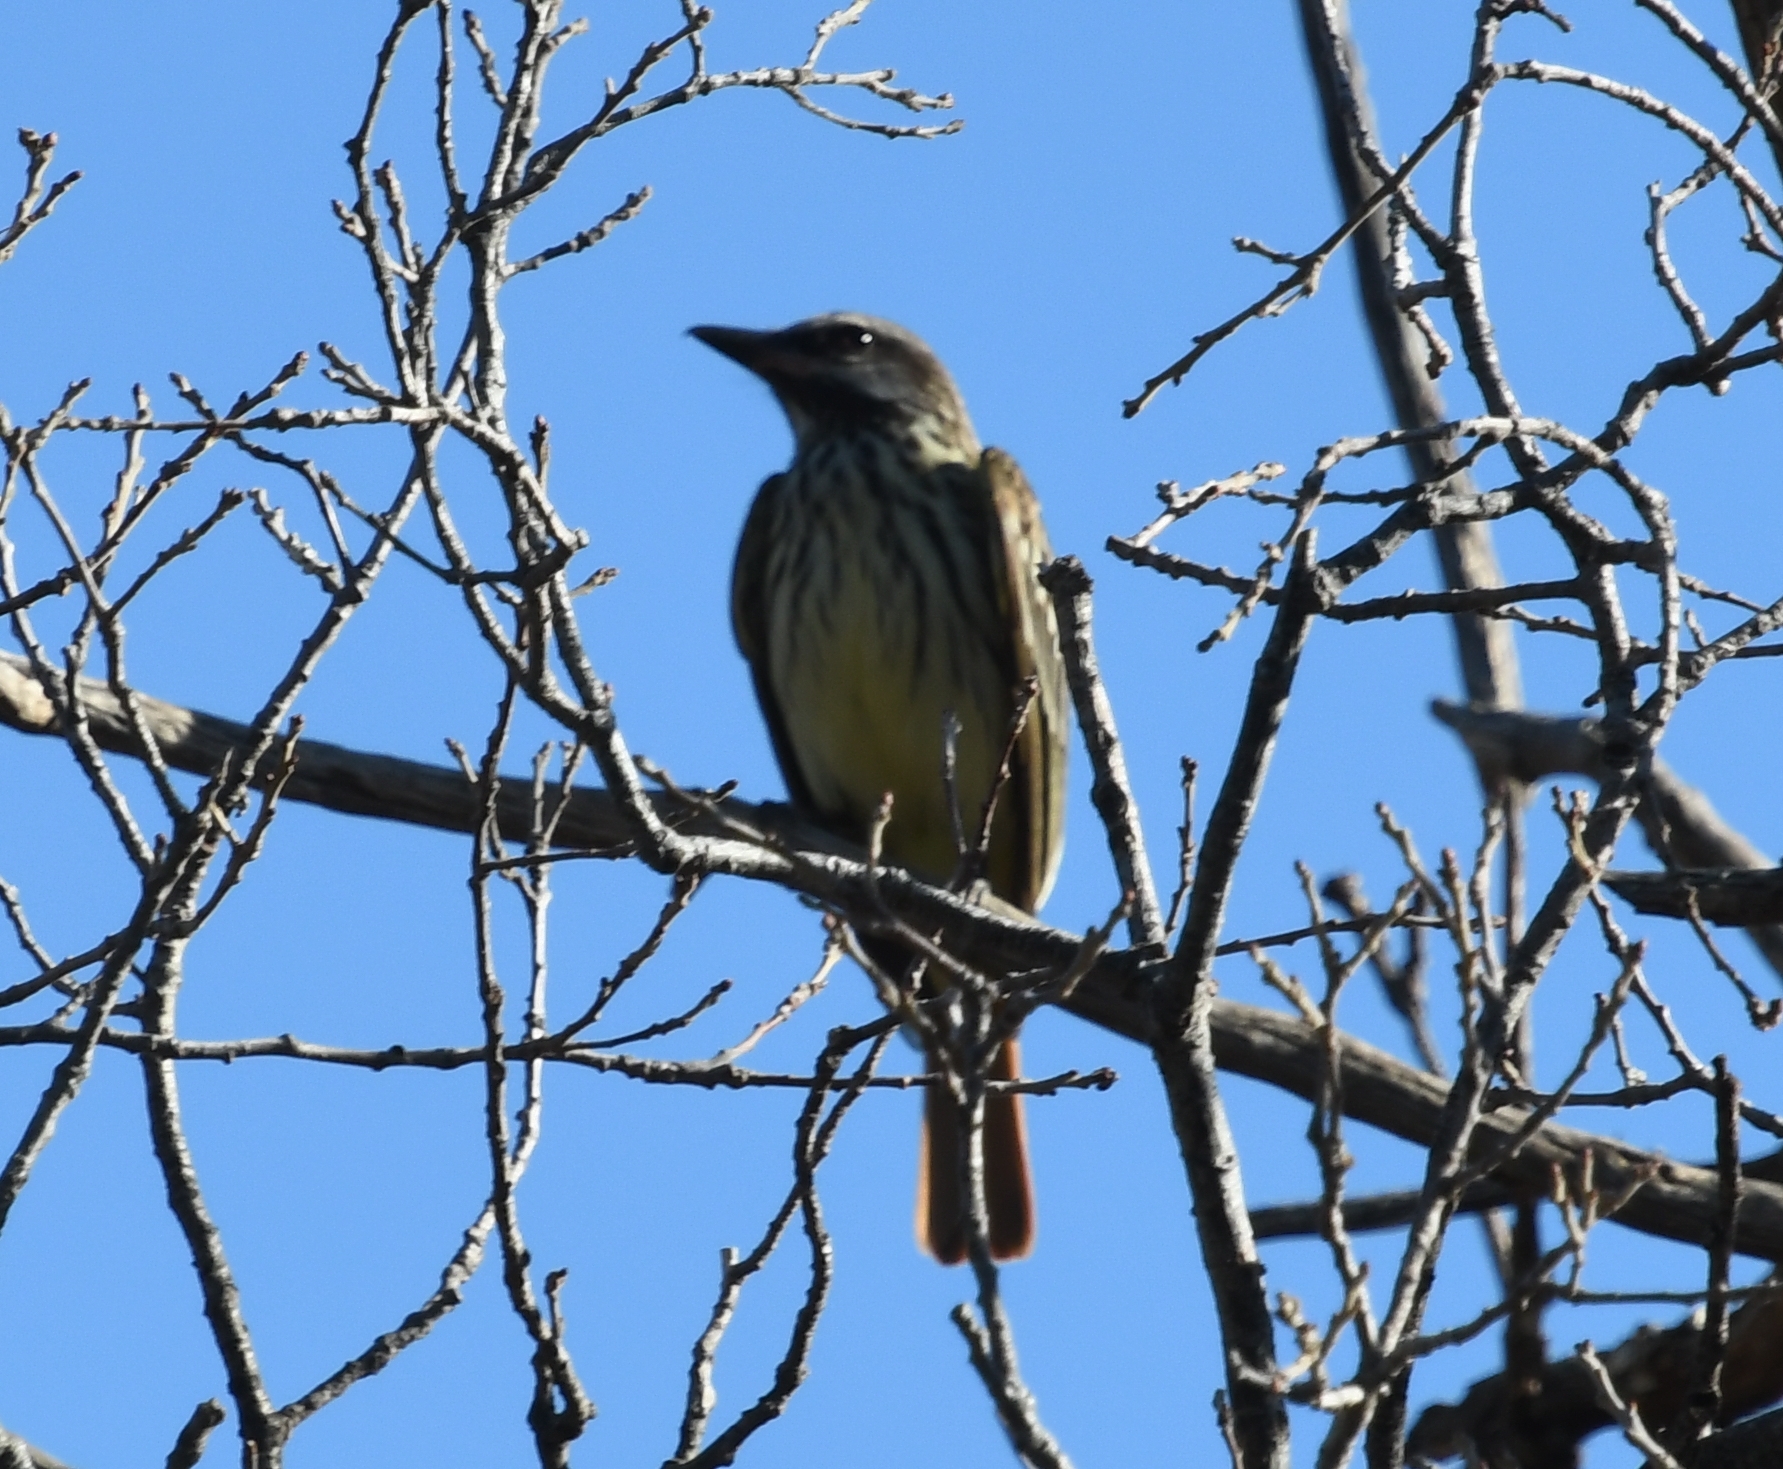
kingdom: Animalia
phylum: Chordata
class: Aves
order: Passeriformes
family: Tyrannidae
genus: Myiodynastes
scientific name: Myiodynastes luteiventris
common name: Sulphur-bellied flycatcher
